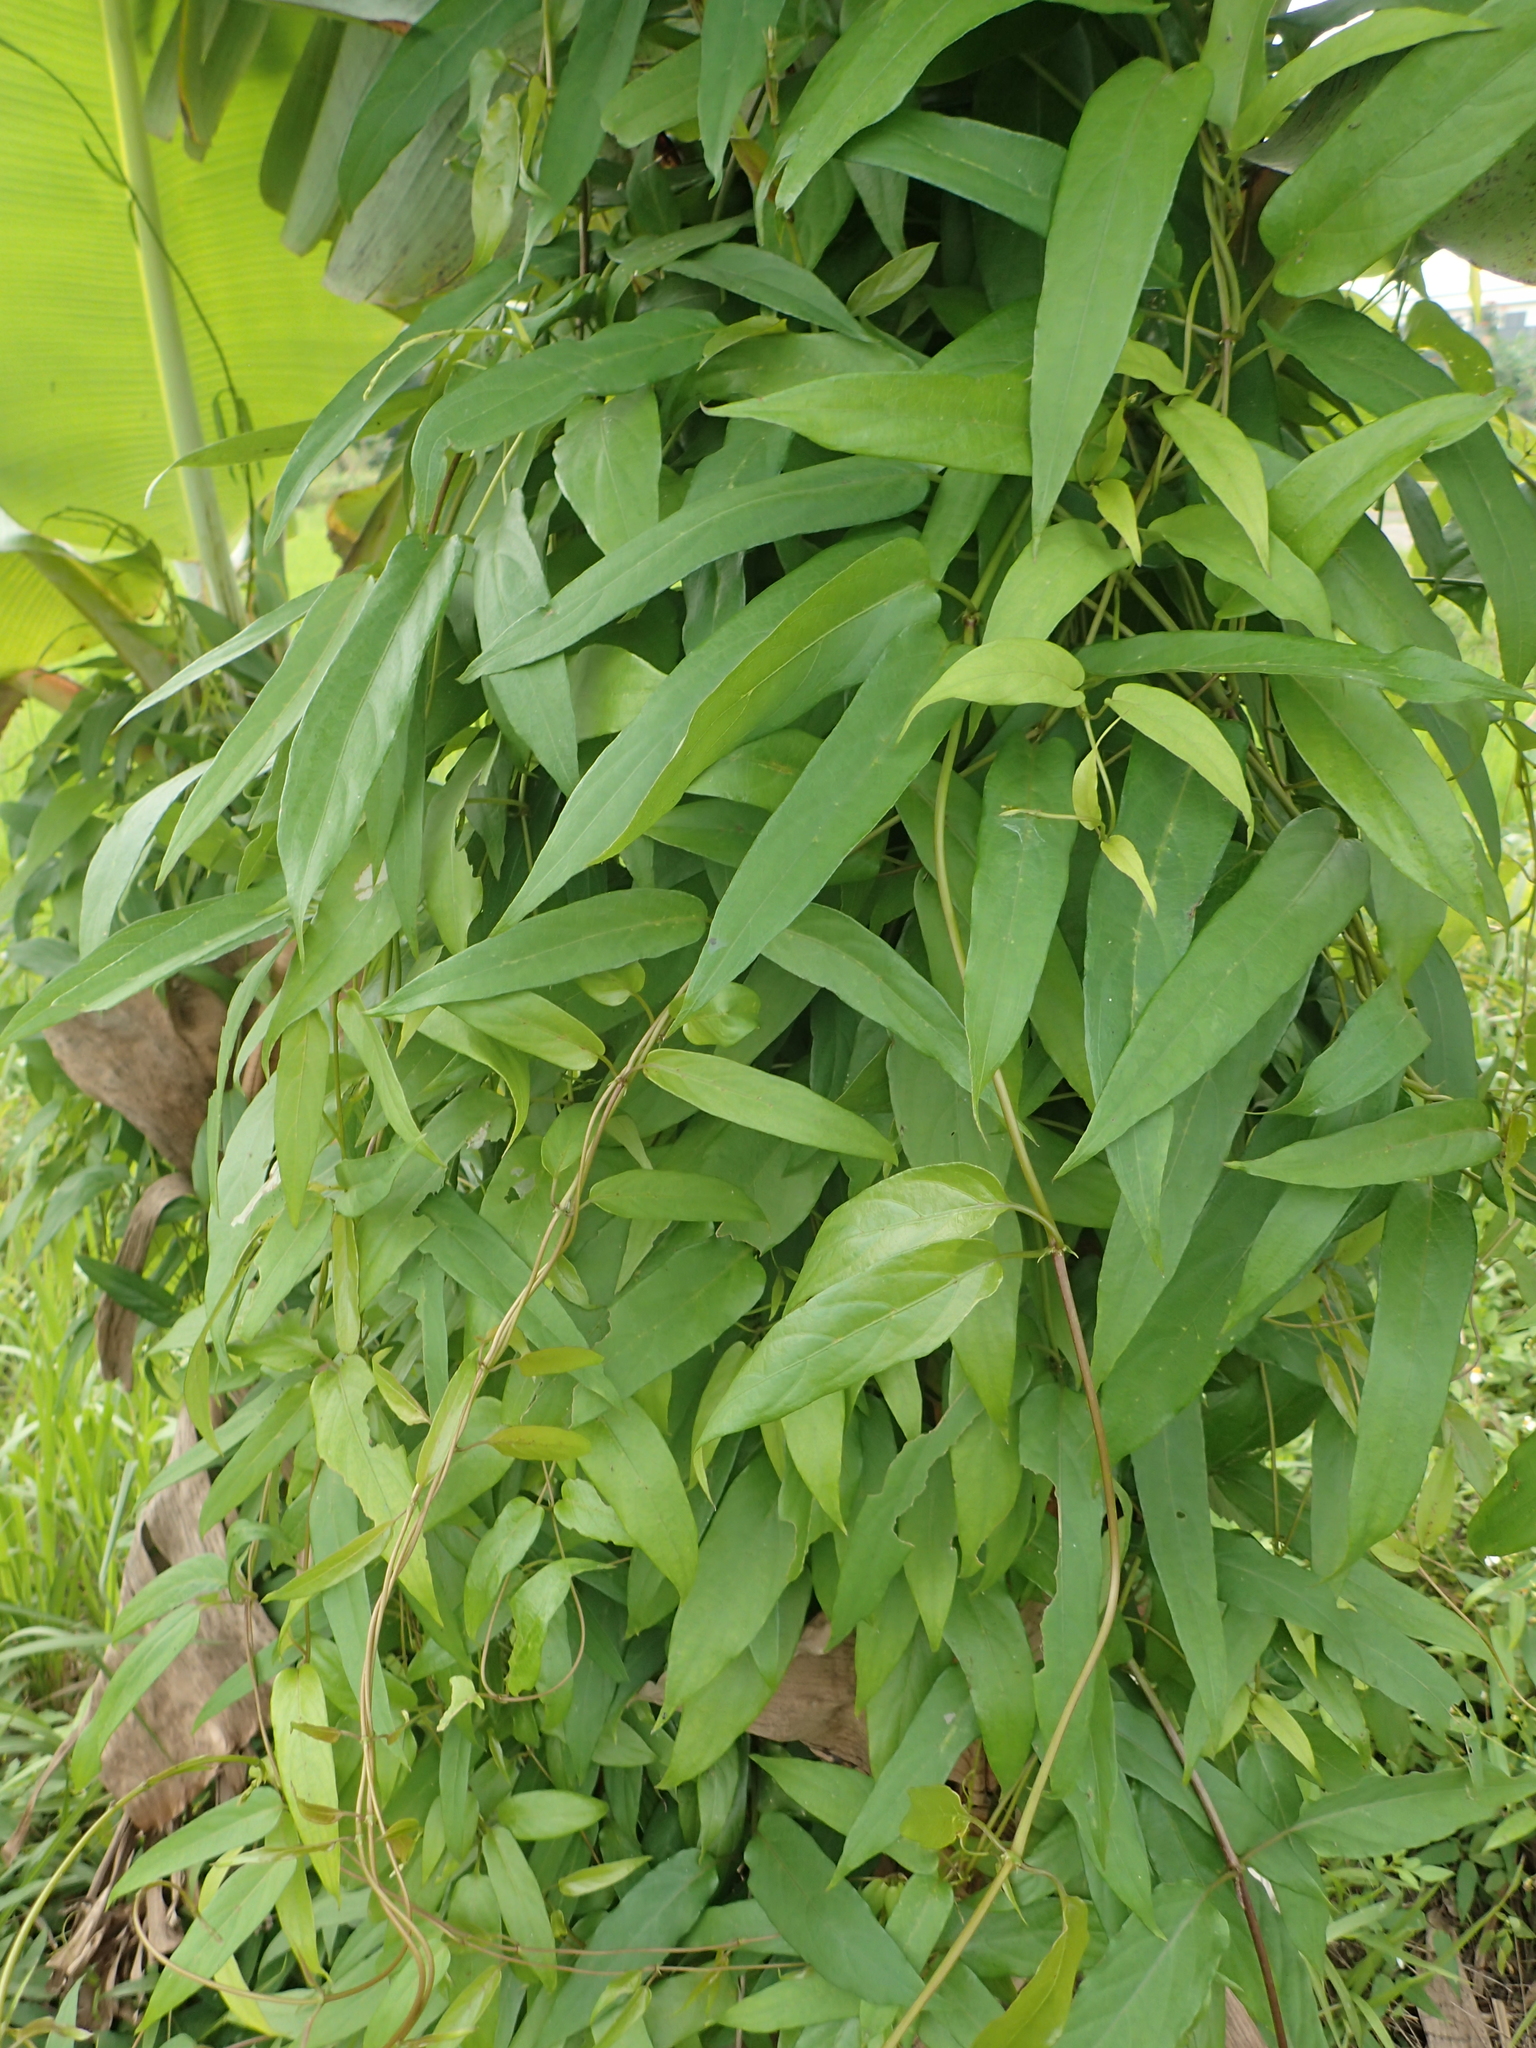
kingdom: Plantae
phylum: Tracheophyta
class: Magnoliopsida
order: Gentianales
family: Rubiaceae
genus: Paederia
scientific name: Paederia foetida
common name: Stinkvine
